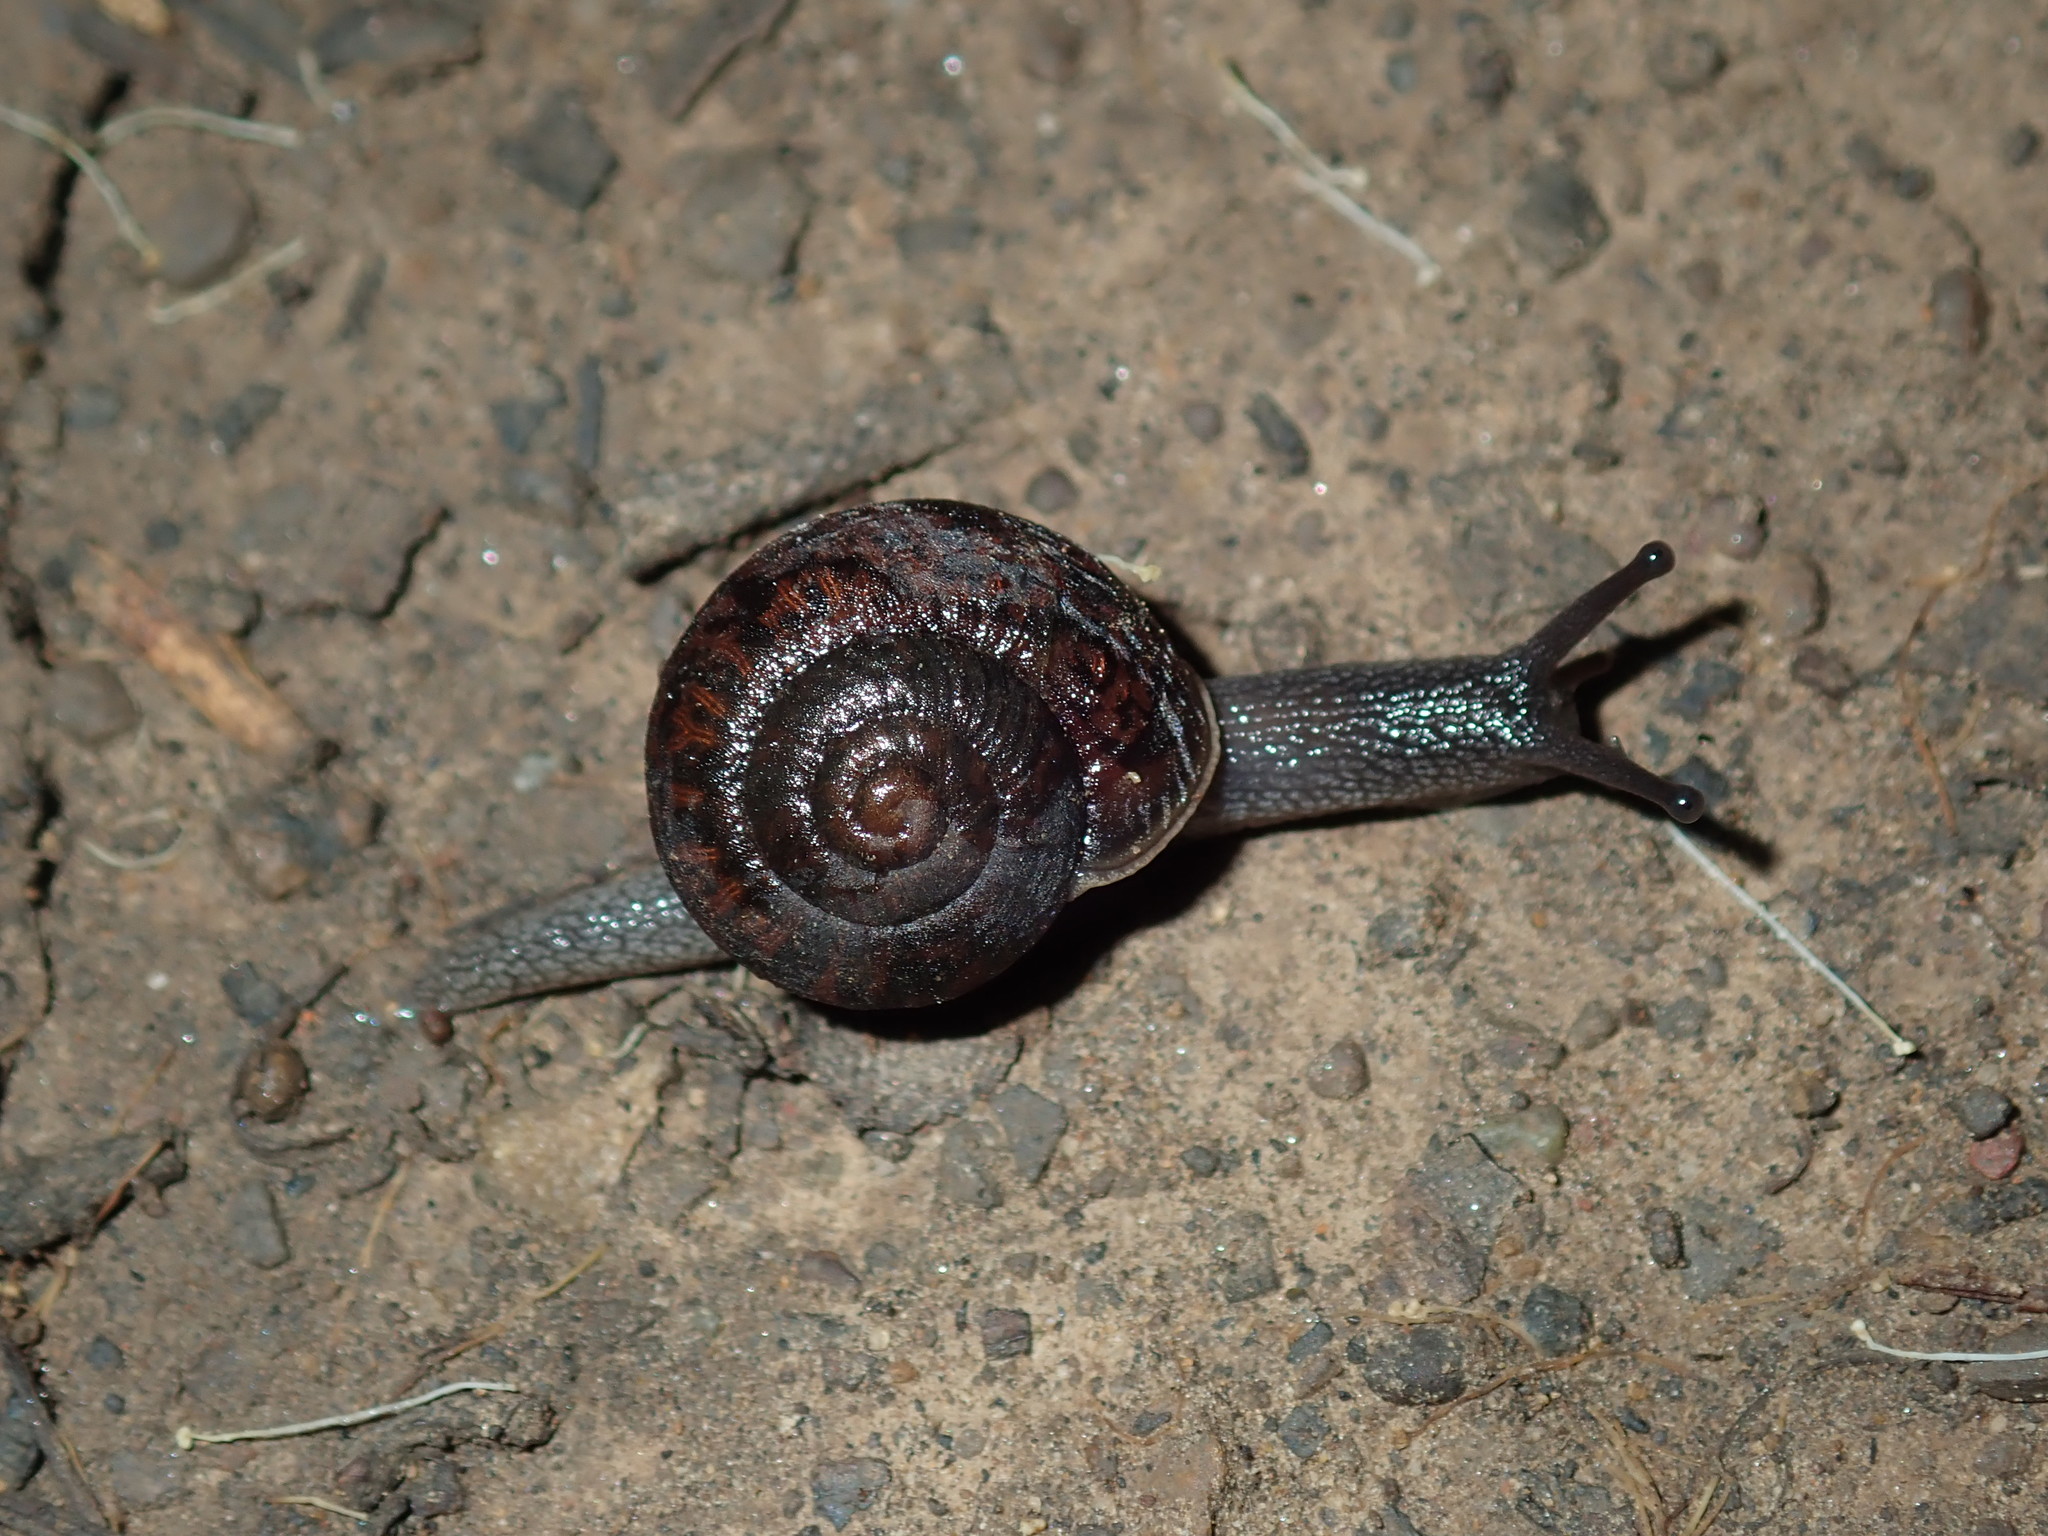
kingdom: Animalia
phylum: Mollusca
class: Gastropoda
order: Stylommatophora
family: Camaenidae
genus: Sauroconcha
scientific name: Sauroconcha sheai
